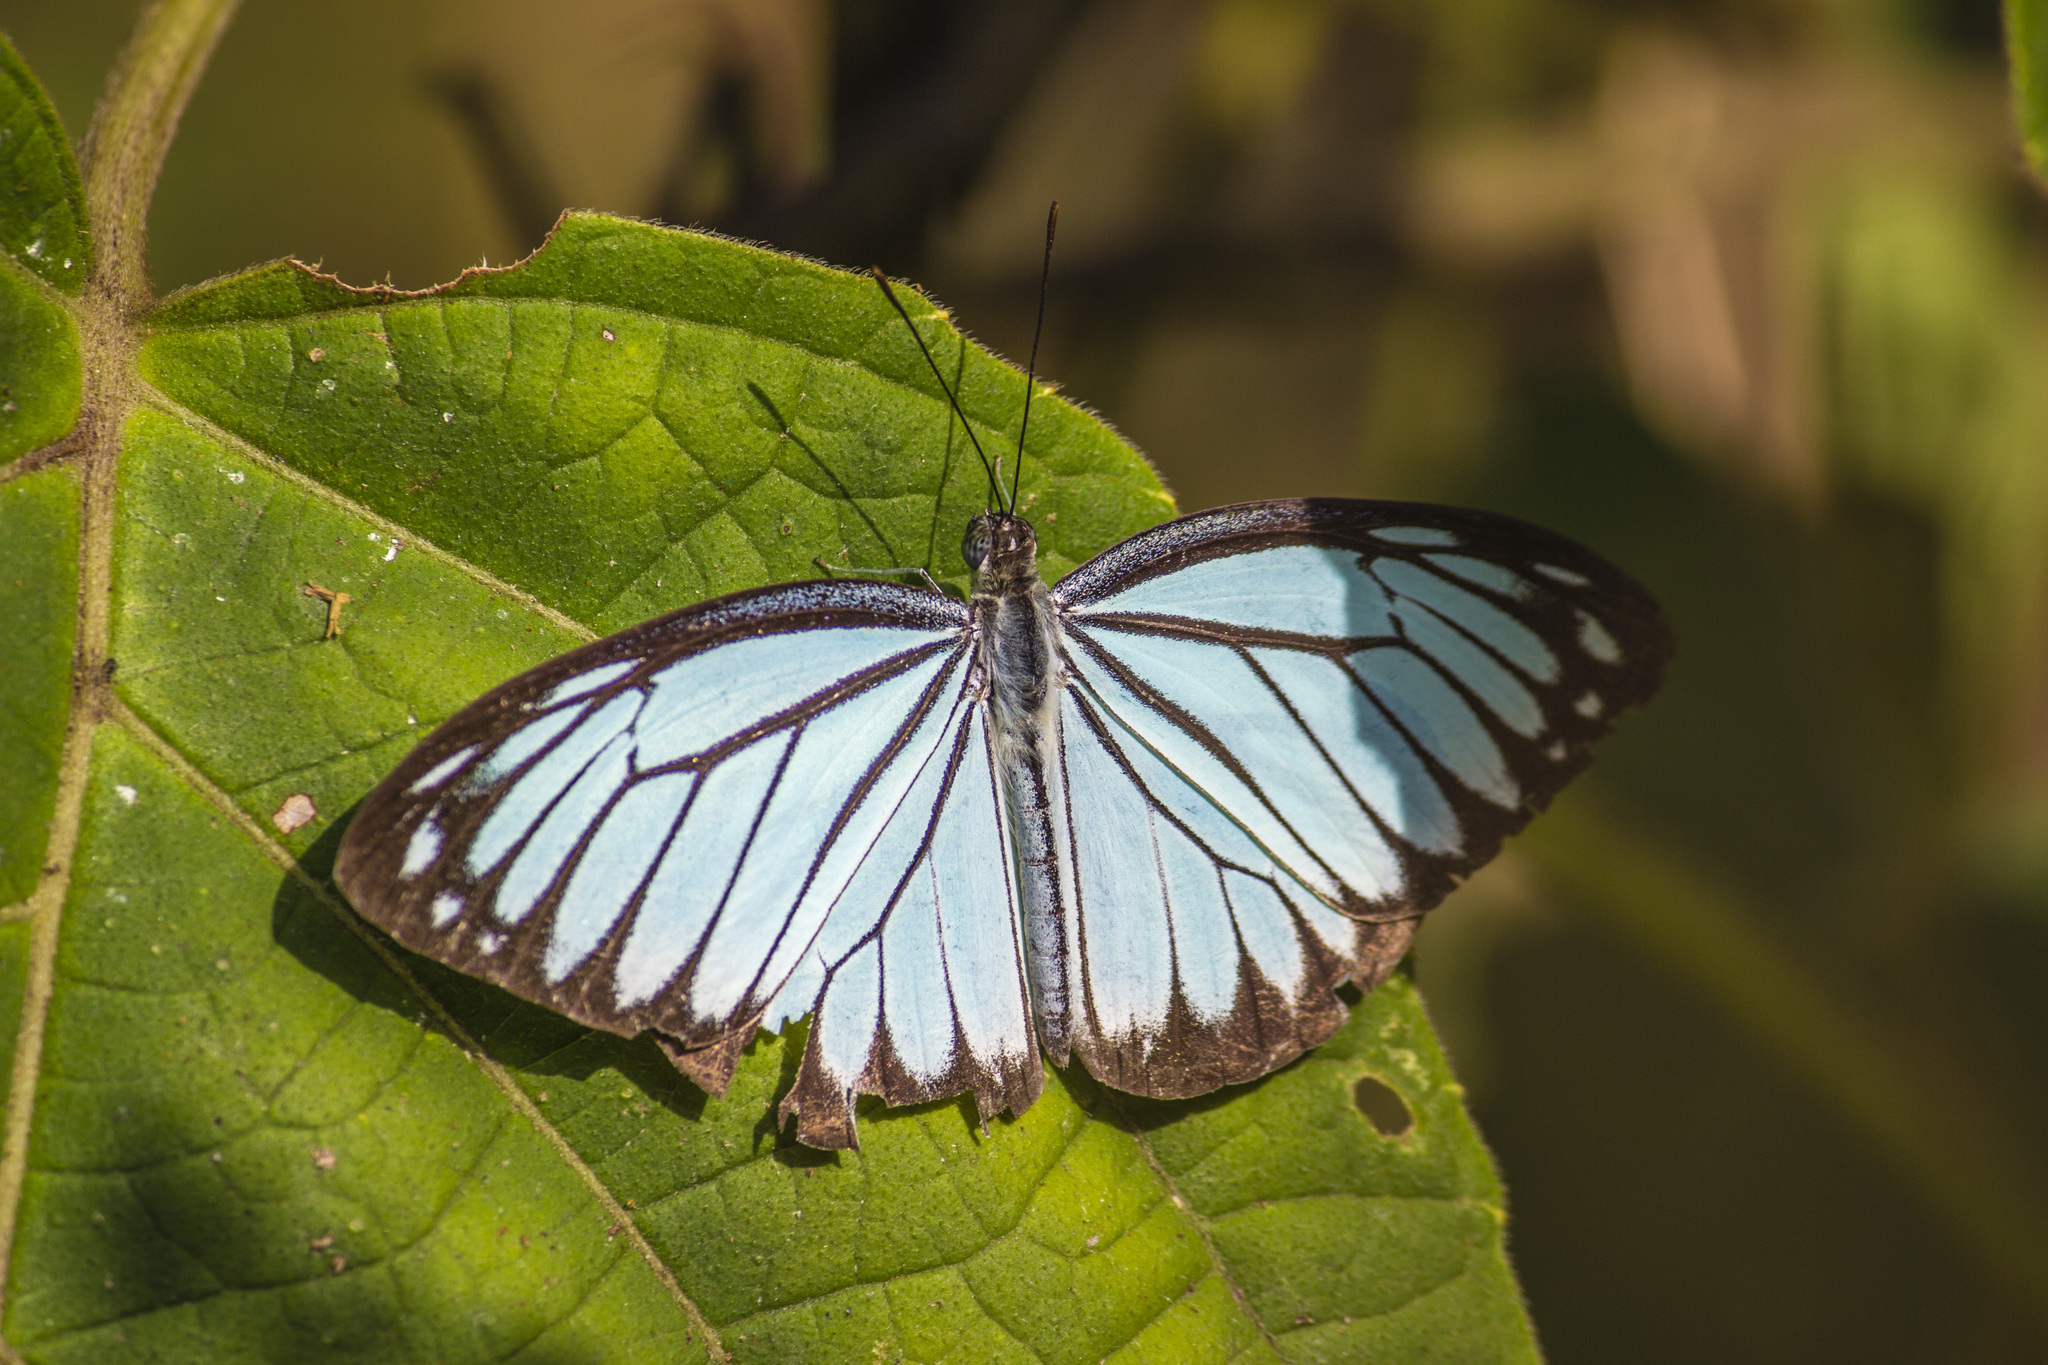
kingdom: Animalia
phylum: Arthropoda
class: Insecta
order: Lepidoptera
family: Pieridae
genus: Pareronia
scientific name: Pareronia hippia
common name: Indian wanderer
